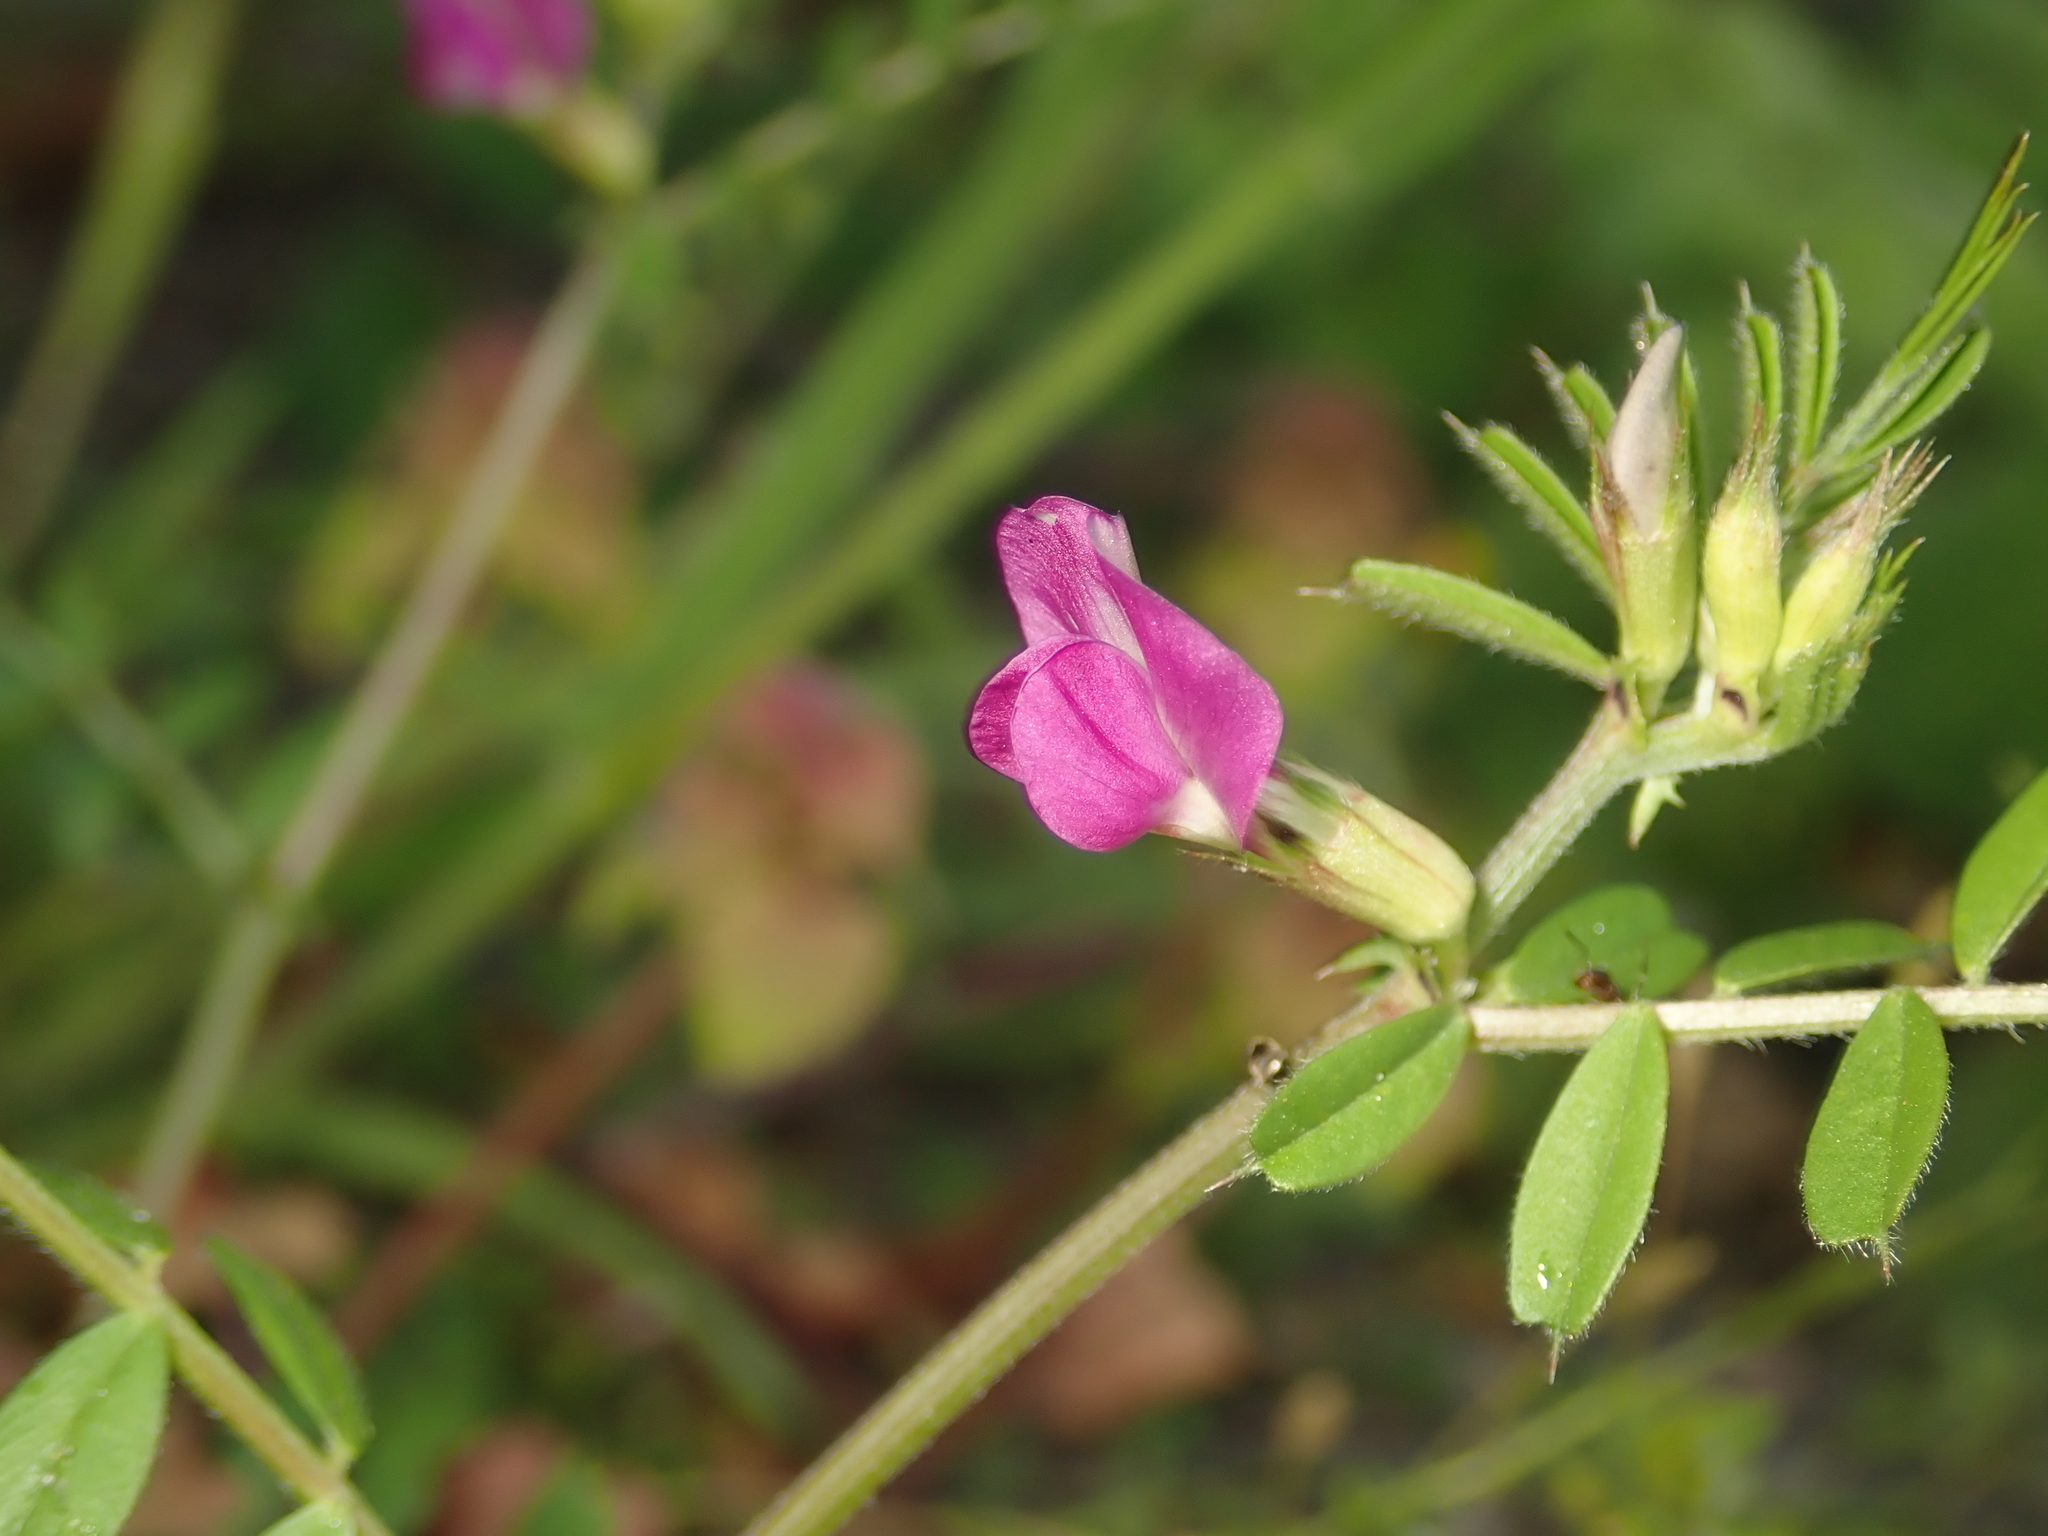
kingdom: Plantae
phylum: Tracheophyta
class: Magnoliopsida
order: Fabales
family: Fabaceae
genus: Vicia
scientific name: Vicia sativa
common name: Garden vetch
